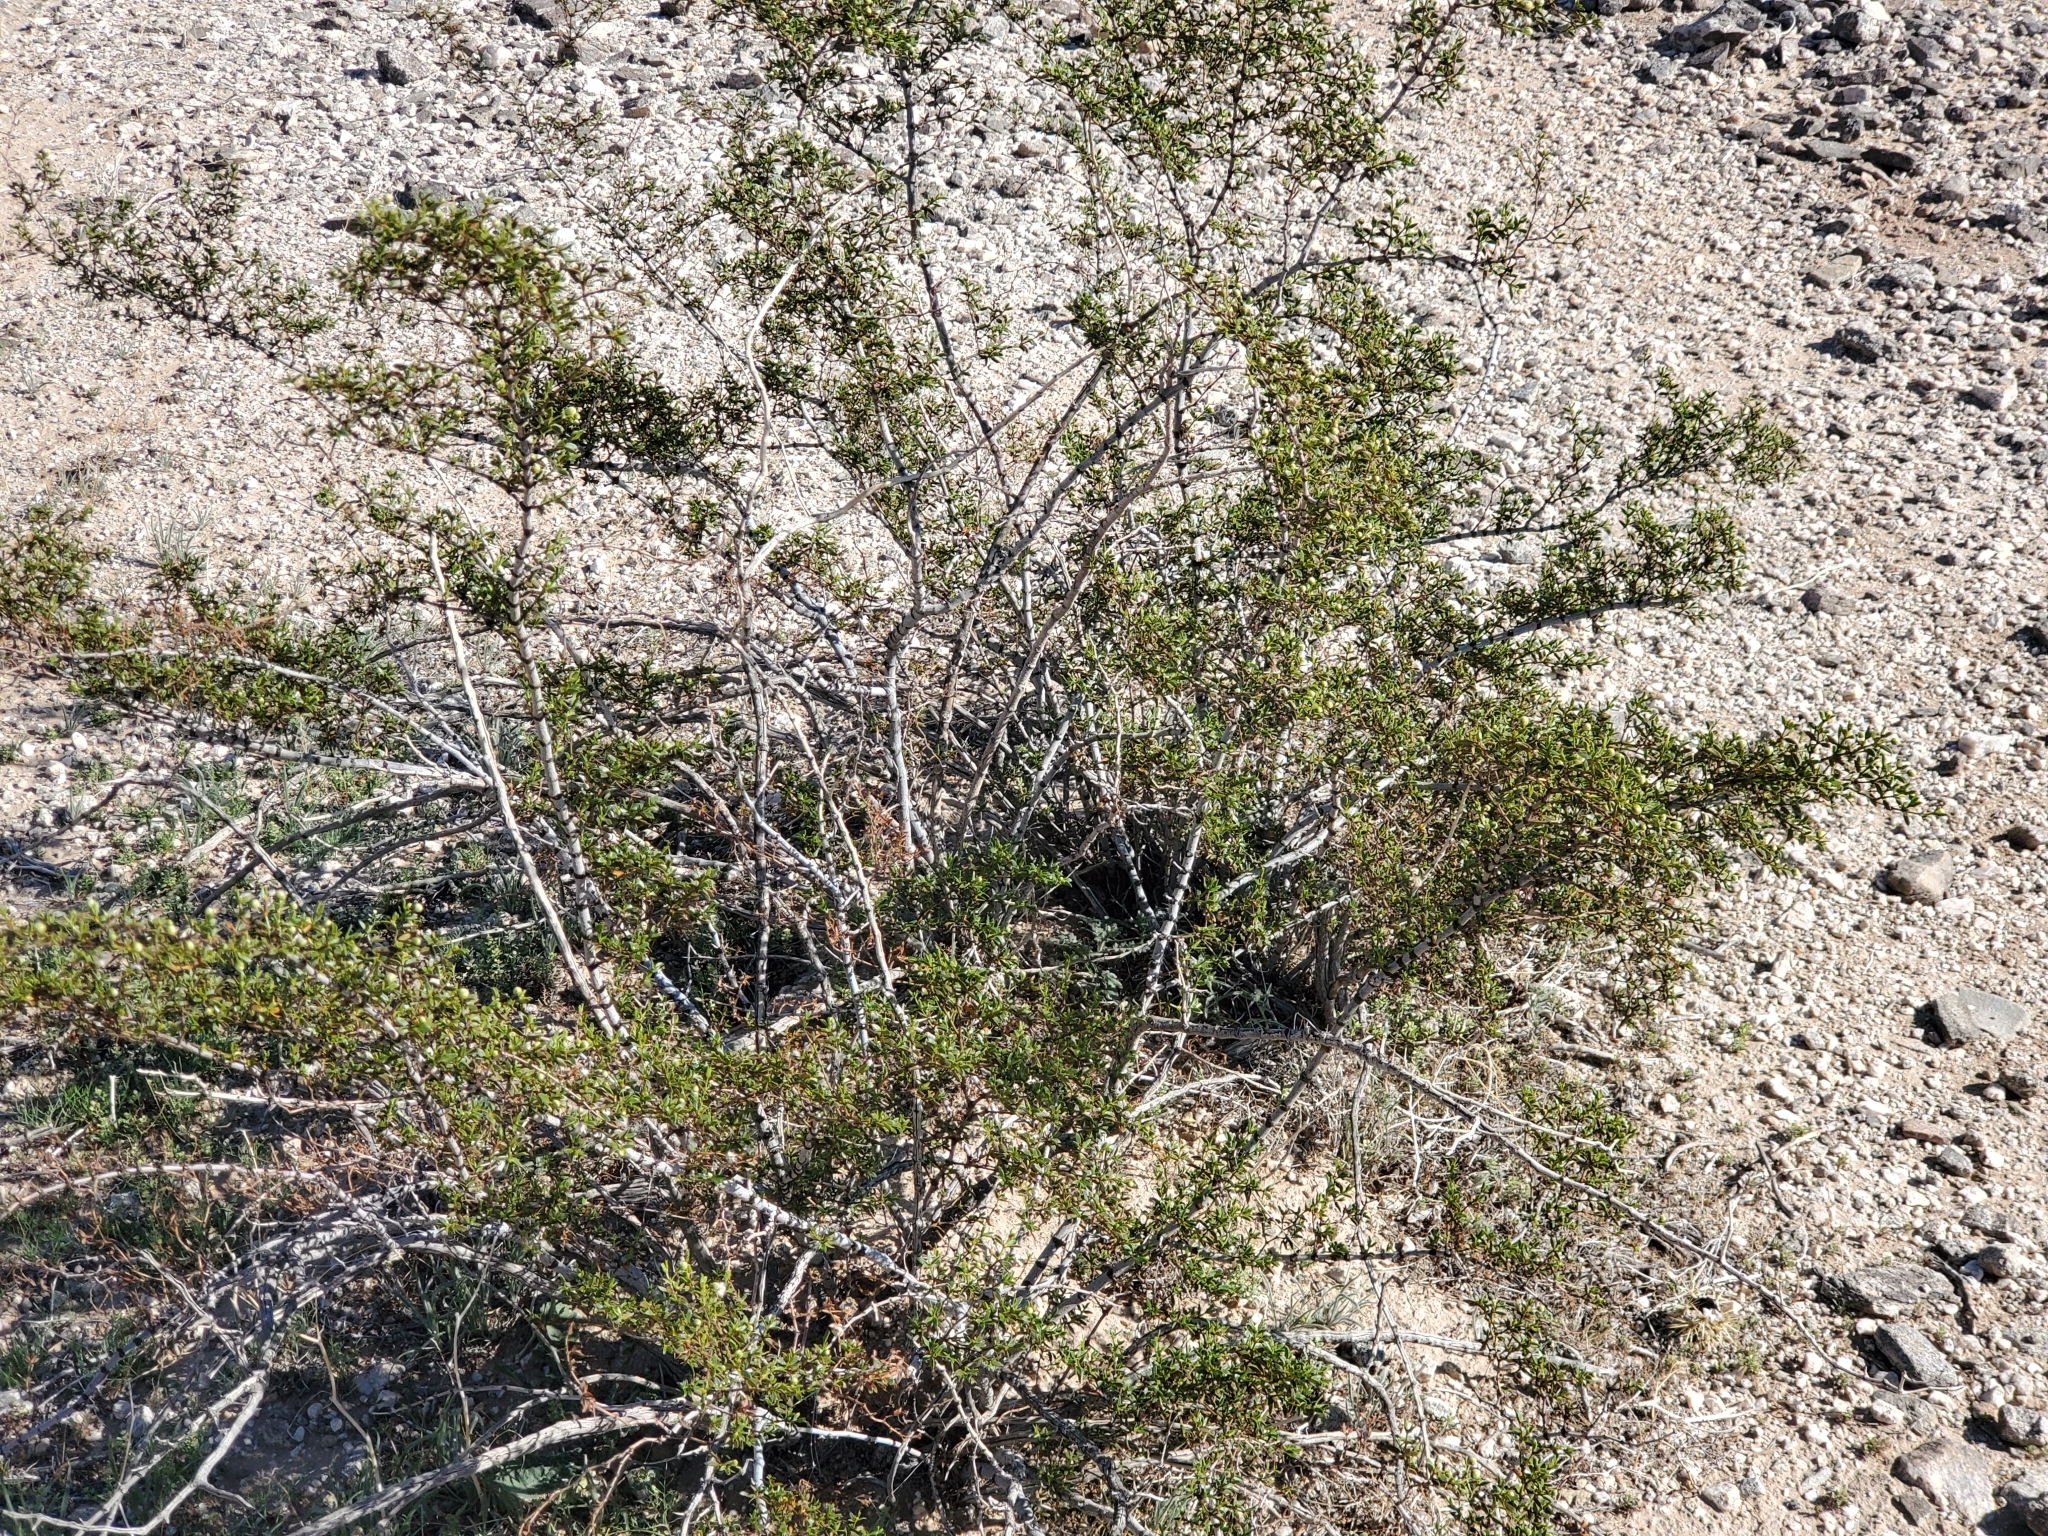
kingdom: Plantae
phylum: Tracheophyta
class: Magnoliopsida
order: Zygophyllales
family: Zygophyllaceae
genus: Larrea
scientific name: Larrea tridentata
